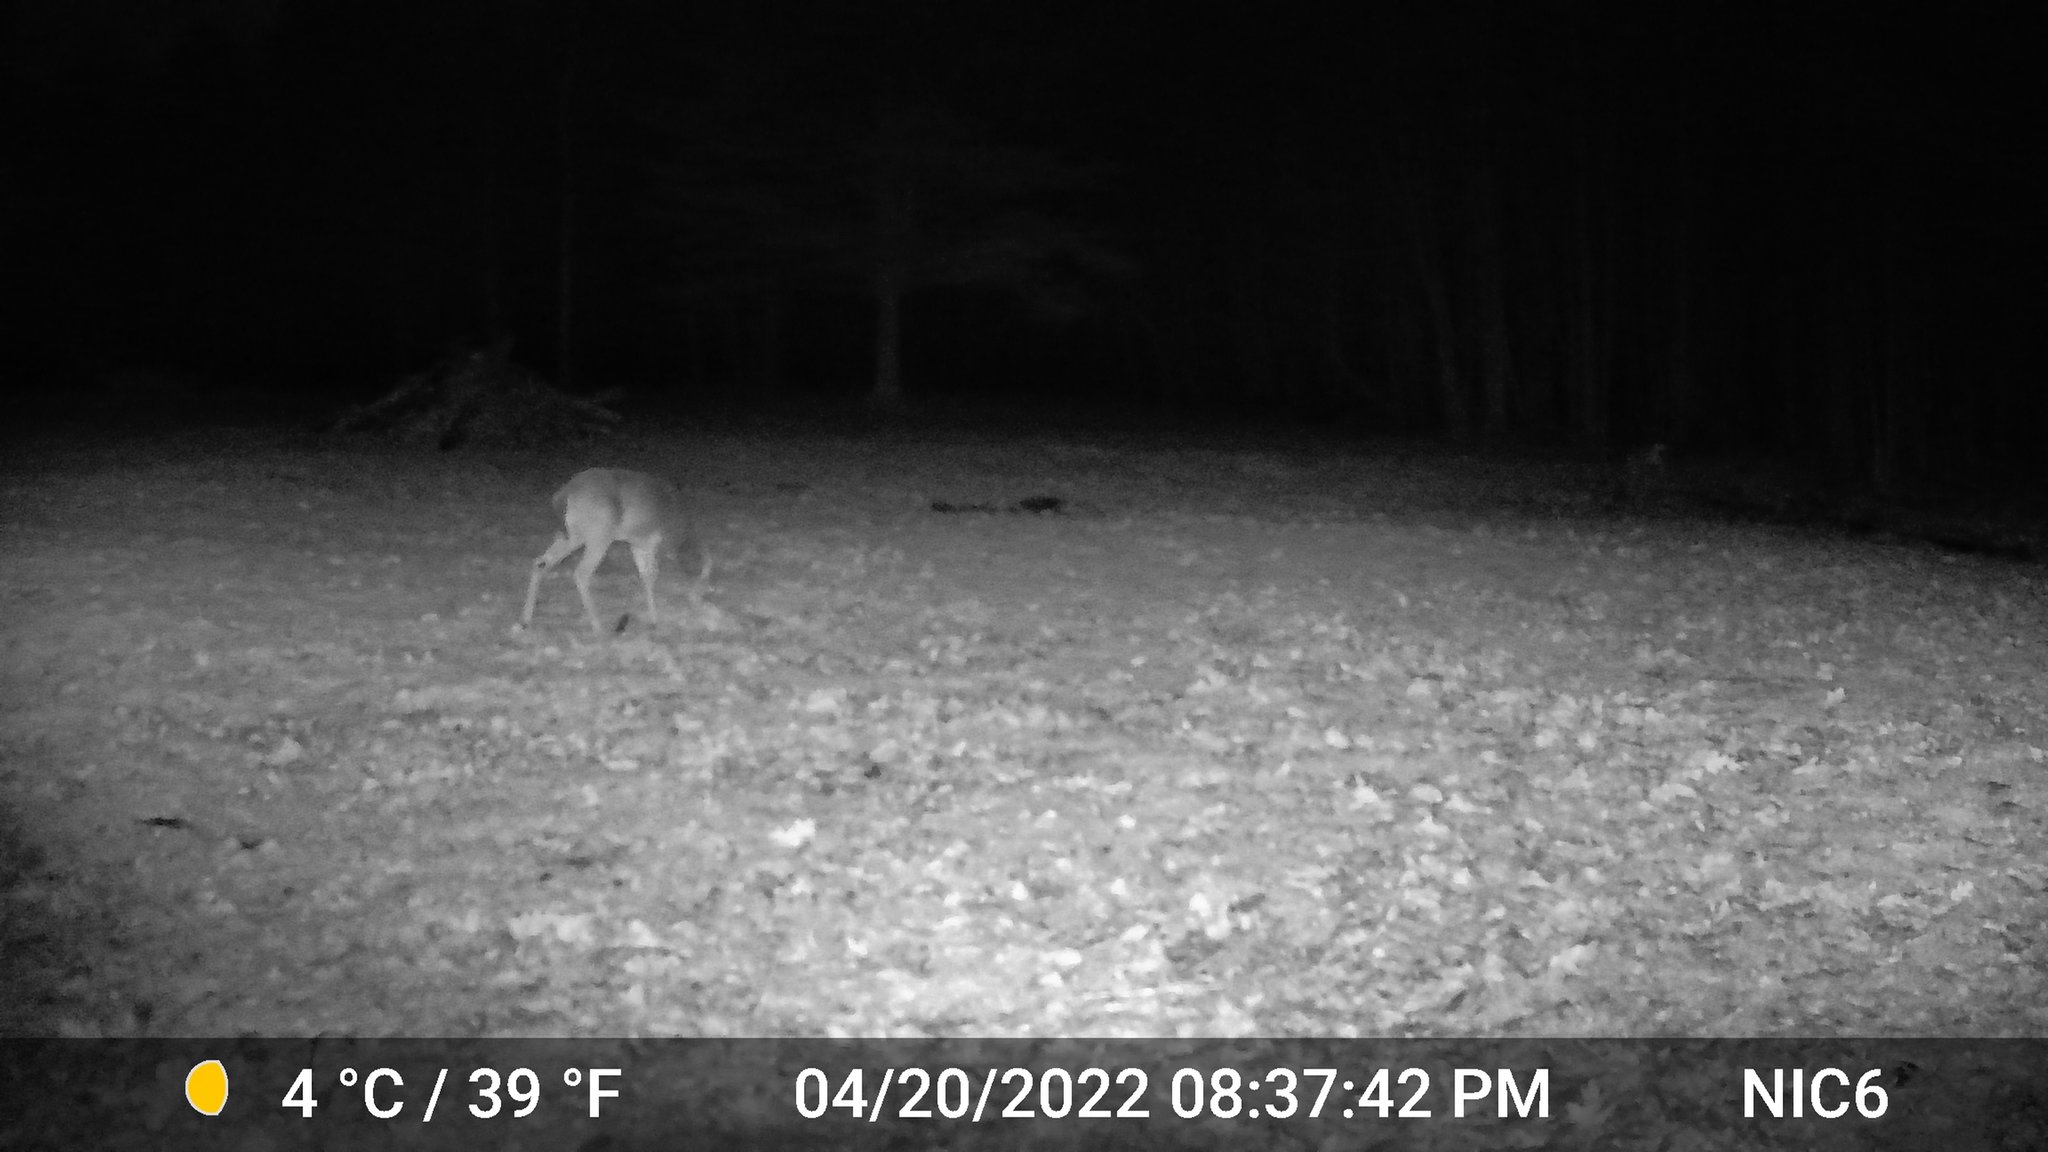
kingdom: Animalia
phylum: Chordata
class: Mammalia
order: Artiodactyla
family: Cervidae
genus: Odocoileus
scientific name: Odocoileus virginianus
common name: White-tailed deer
